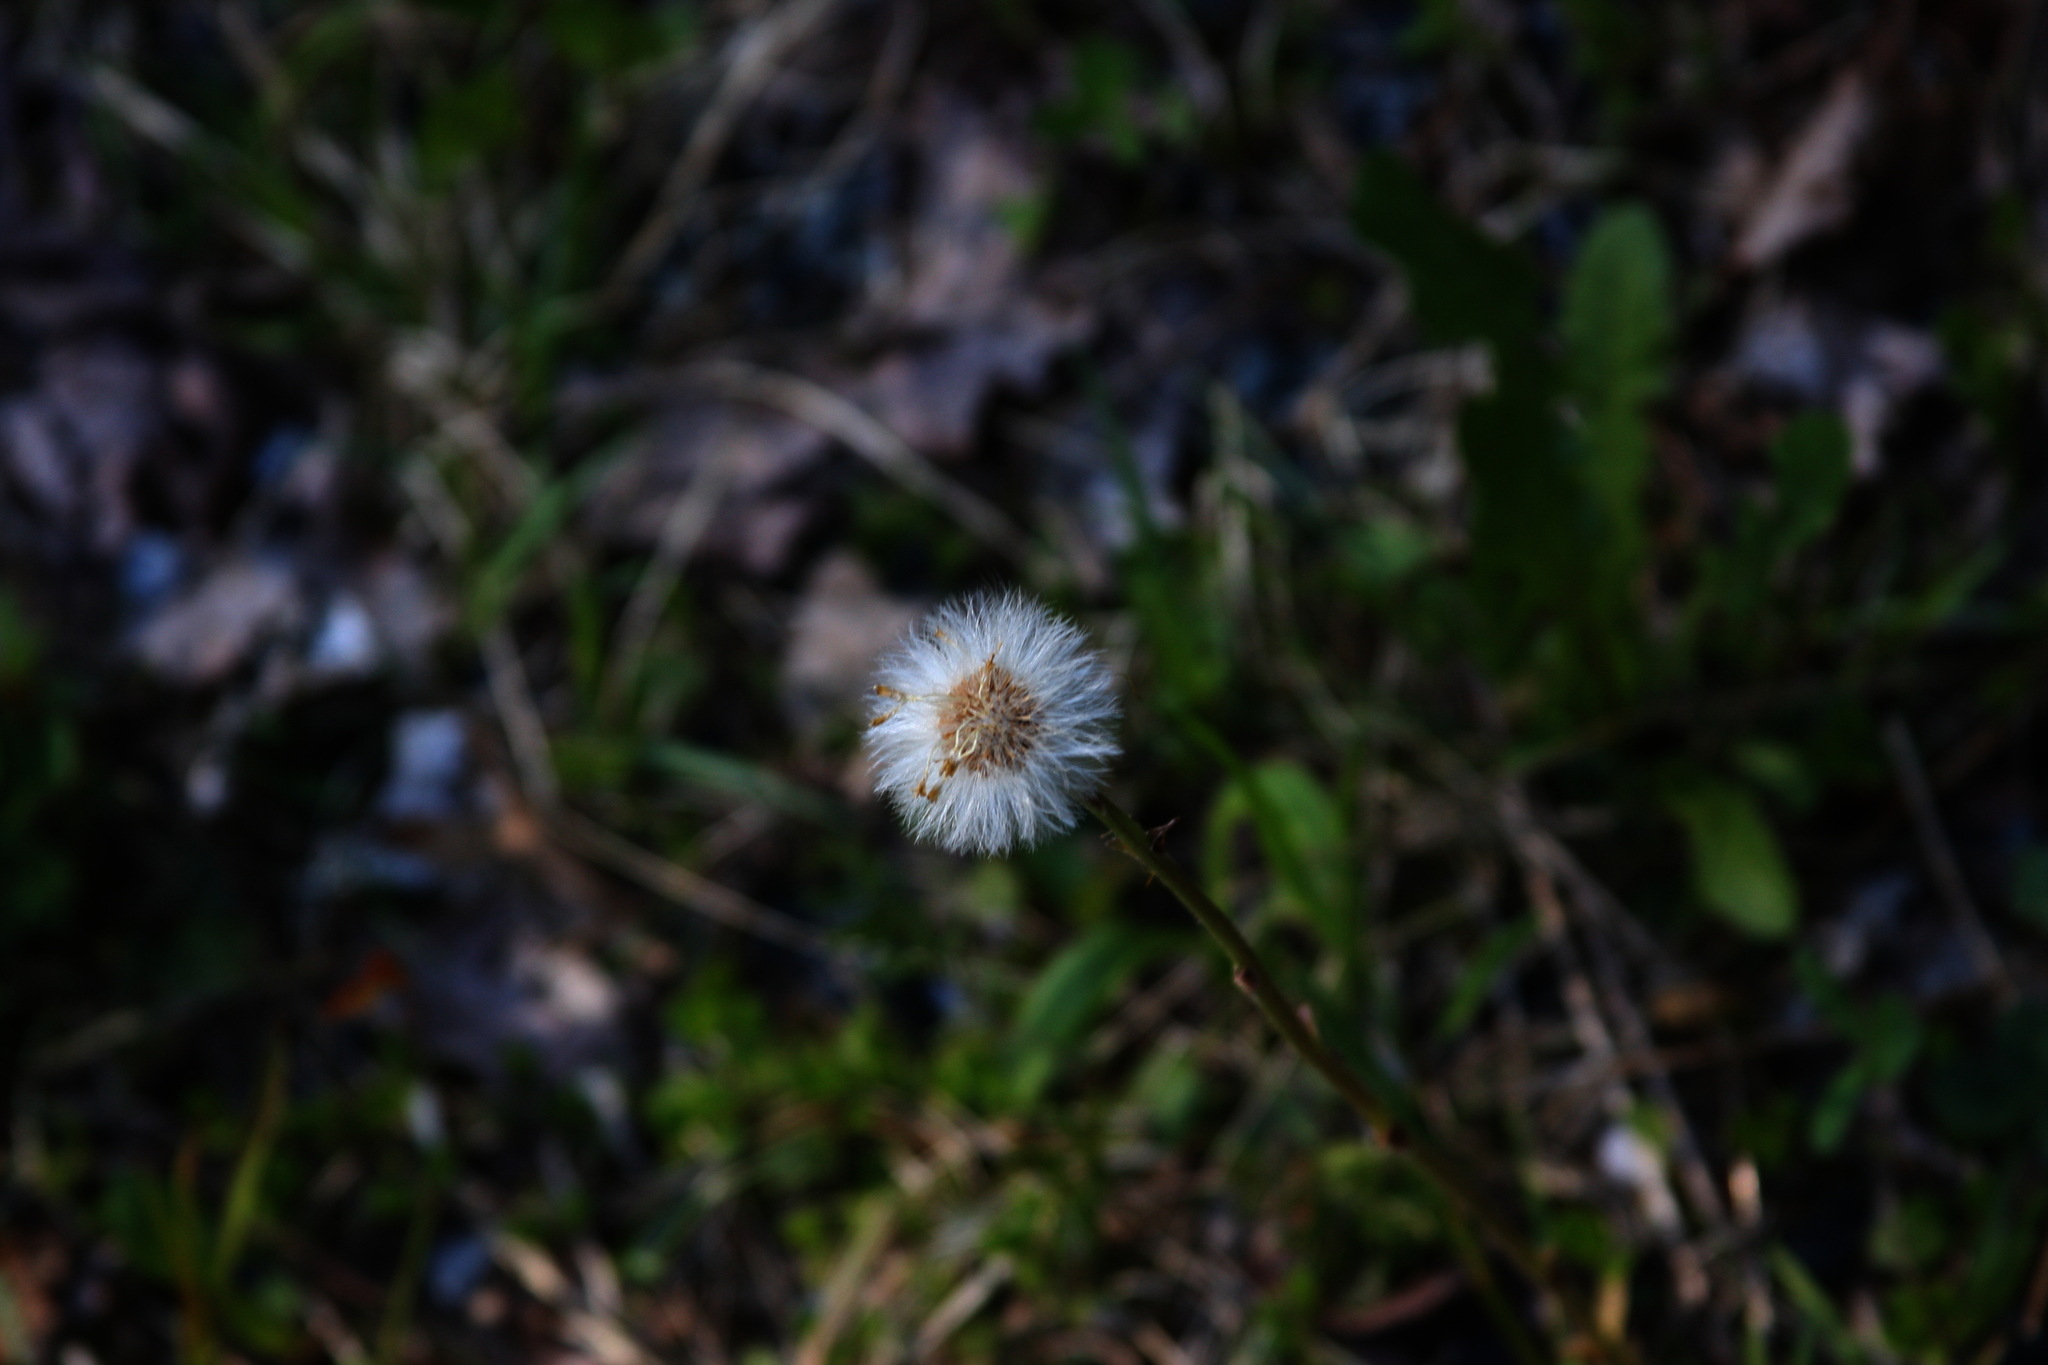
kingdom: Plantae
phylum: Tracheophyta
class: Magnoliopsida
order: Asterales
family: Asteraceae
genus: Tussilago
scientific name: Tussilago farfara
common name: Coltsfoot
